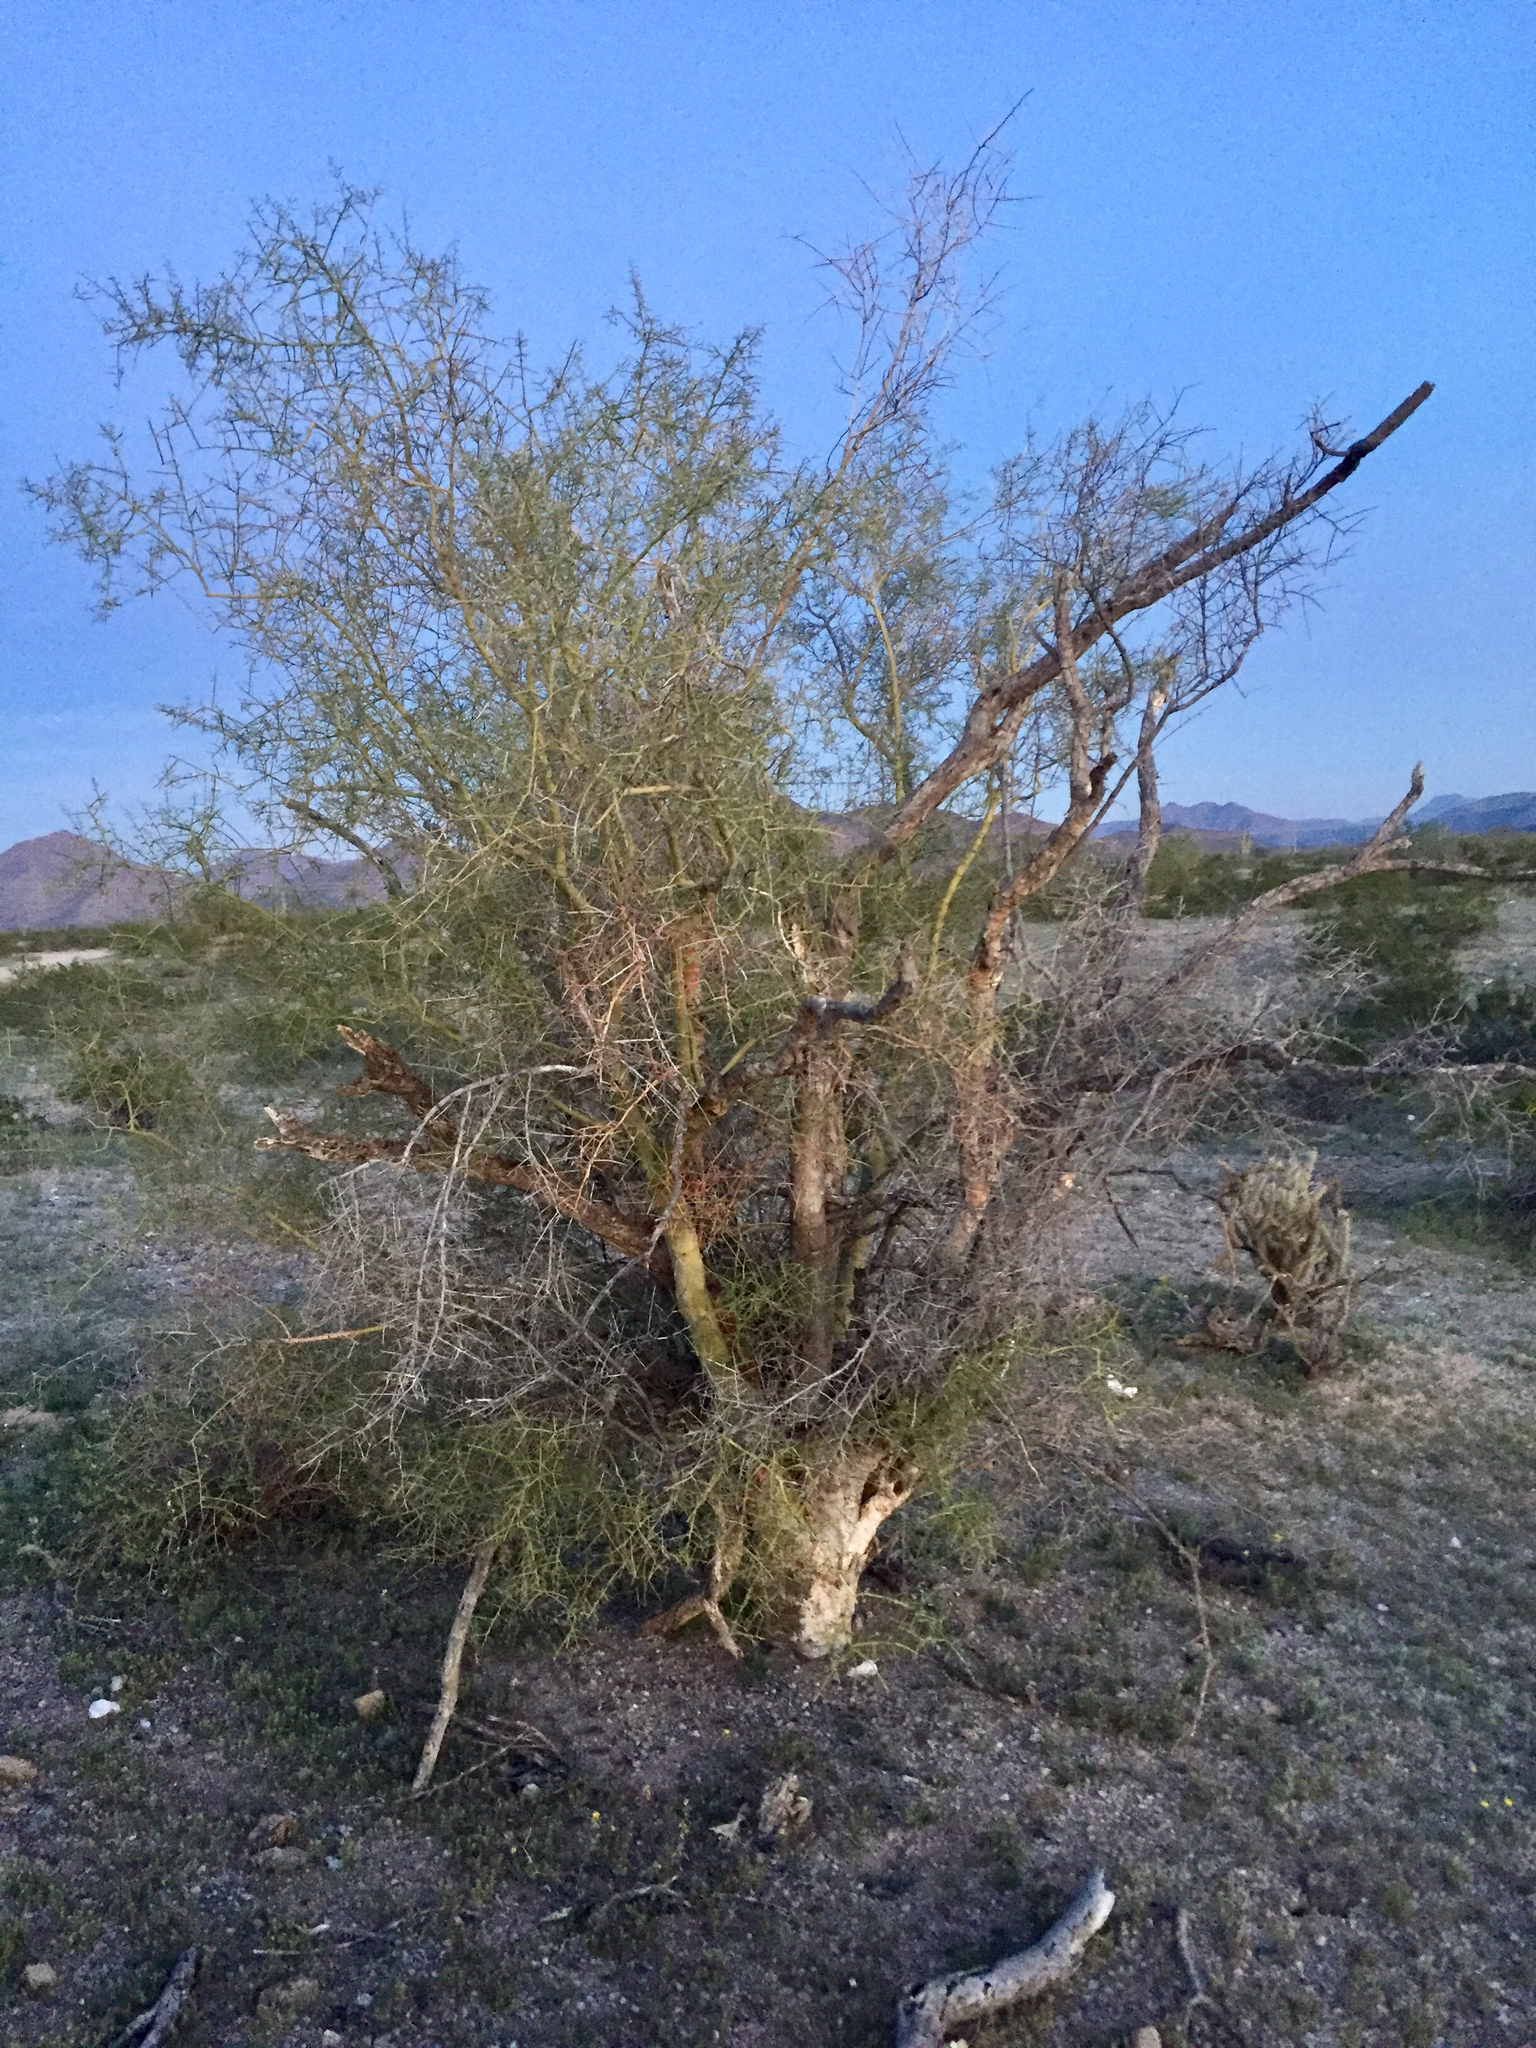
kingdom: Plantae
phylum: Tracheophyta
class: Magnoliopsida
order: Fabales
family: Fabaceae
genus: Parkinsonia
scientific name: Parkinsonia microphylla
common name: Yellow paloverde
